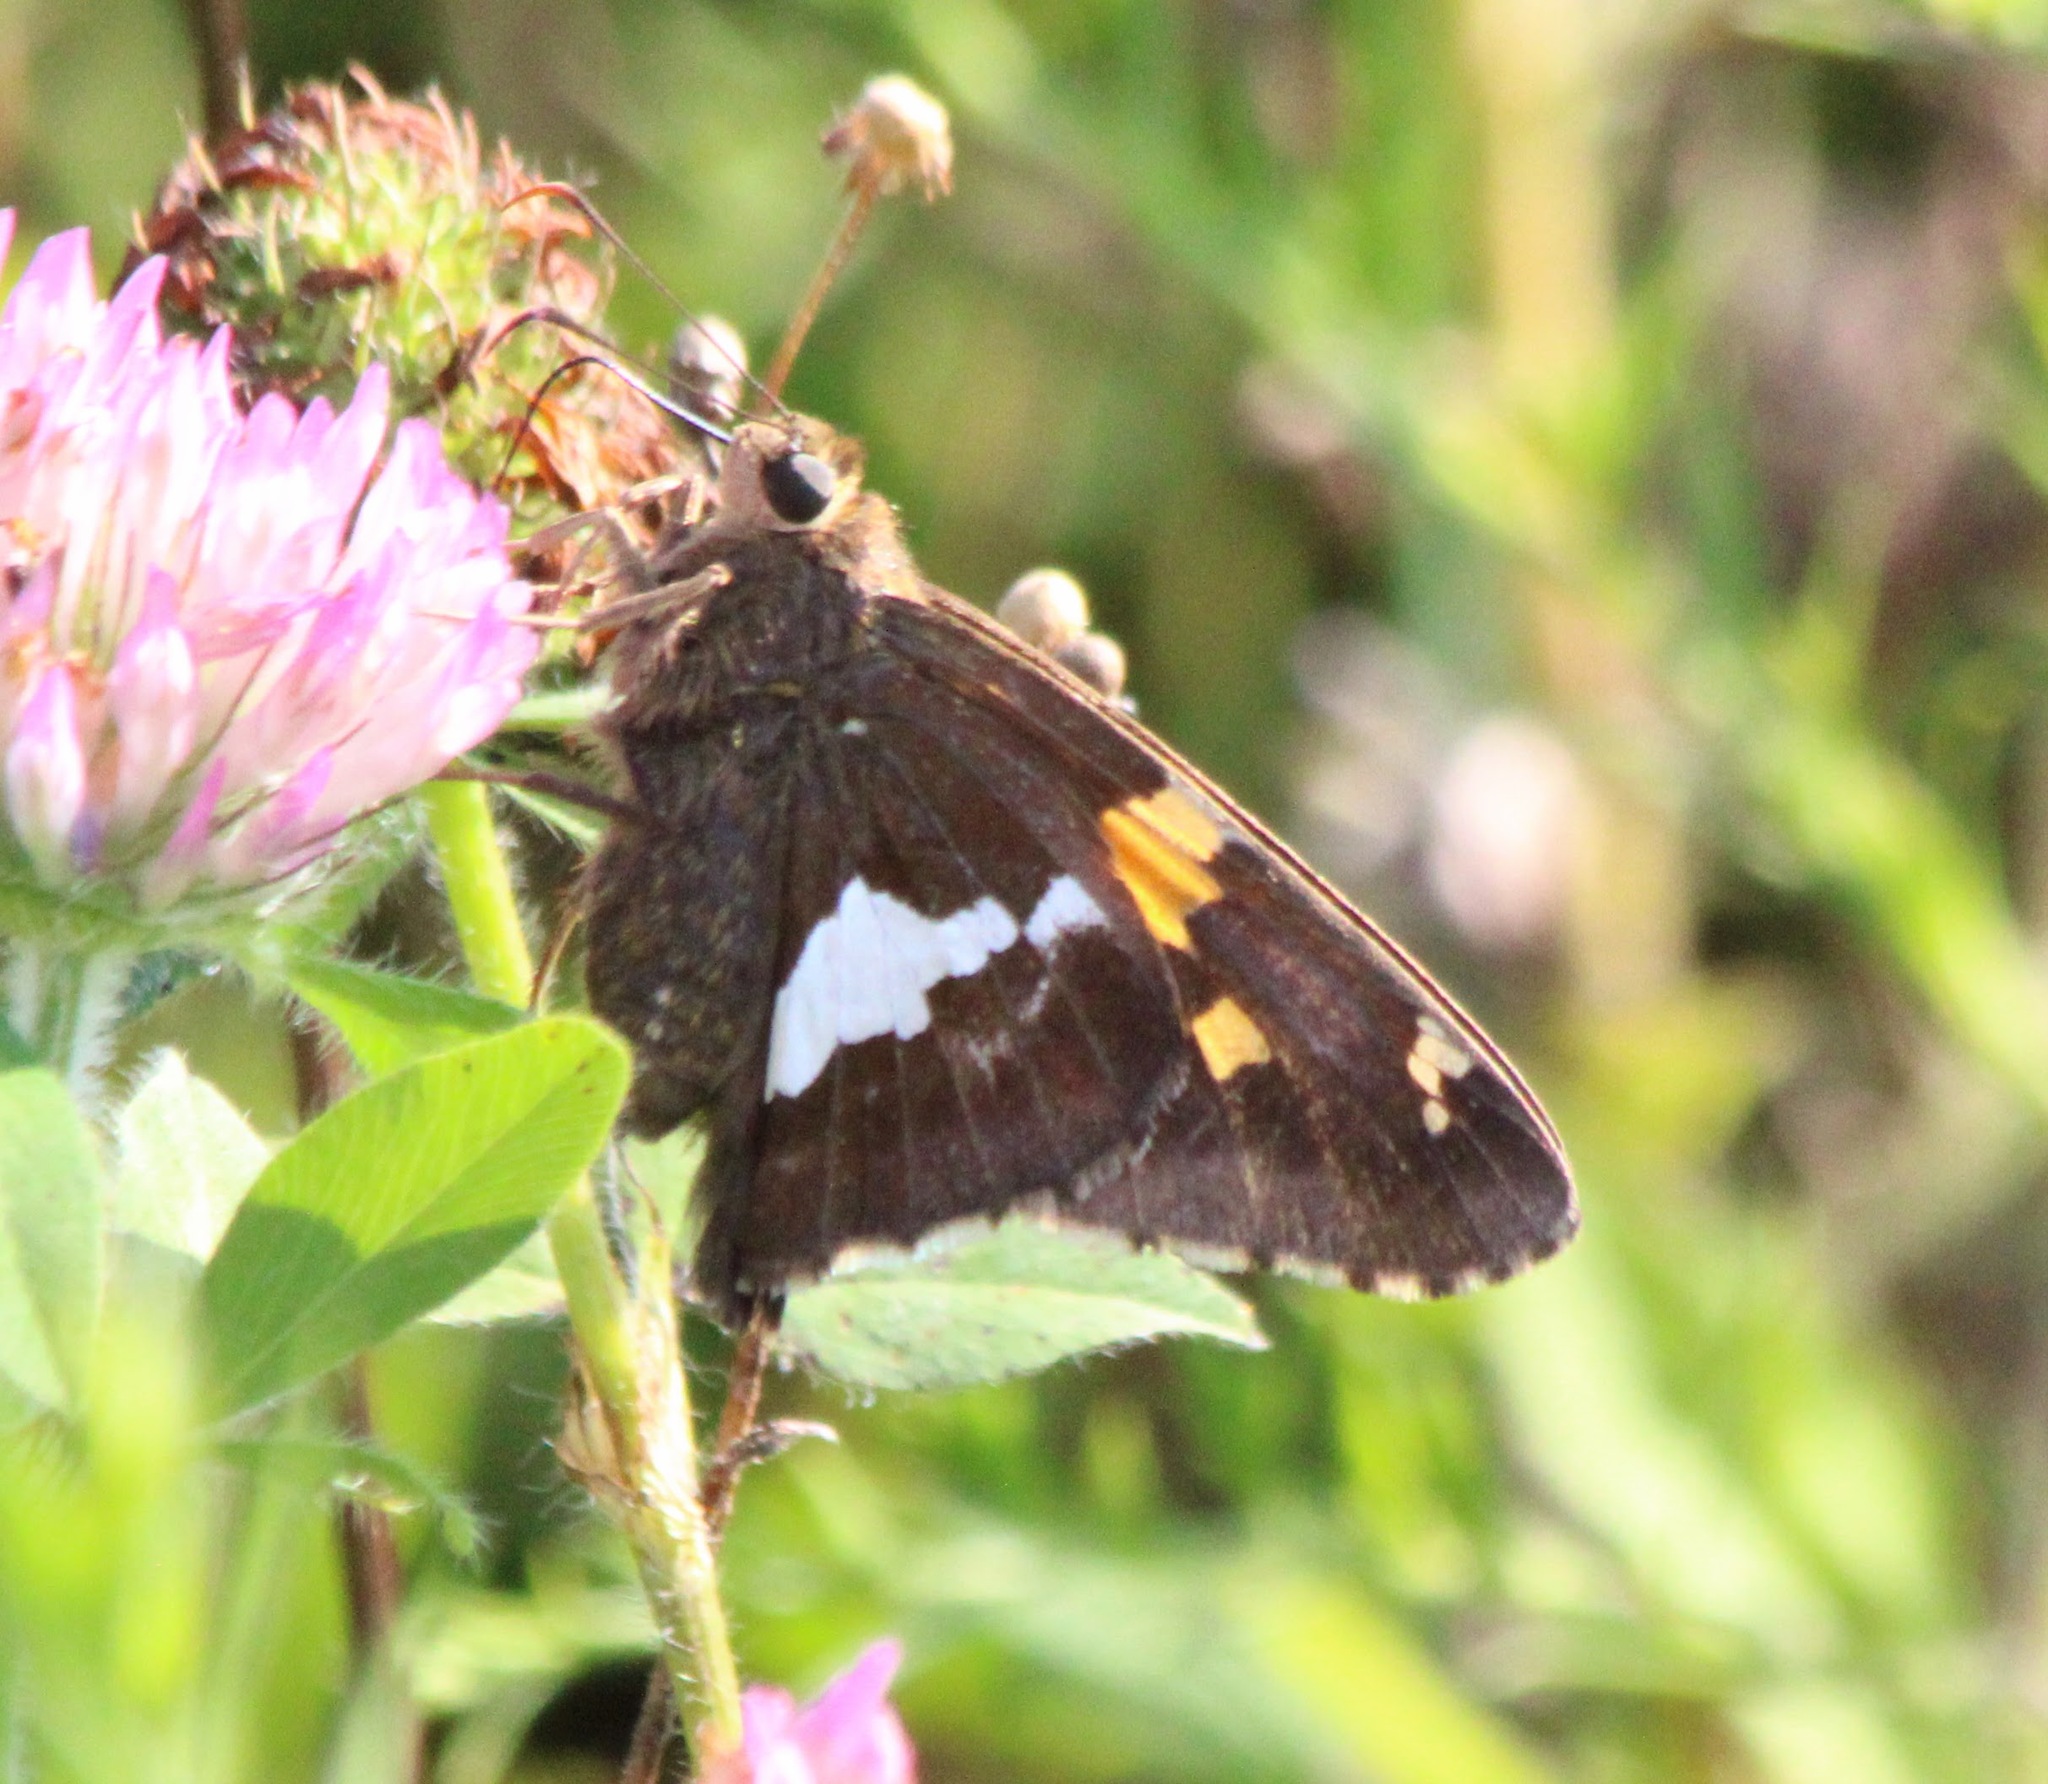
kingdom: Animalia
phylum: Arthropoda
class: Insecta
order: Lepidoptera
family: Hesperiidae
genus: Epargyreus
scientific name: Epargyreus clarus
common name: Silver-spotted skipper
